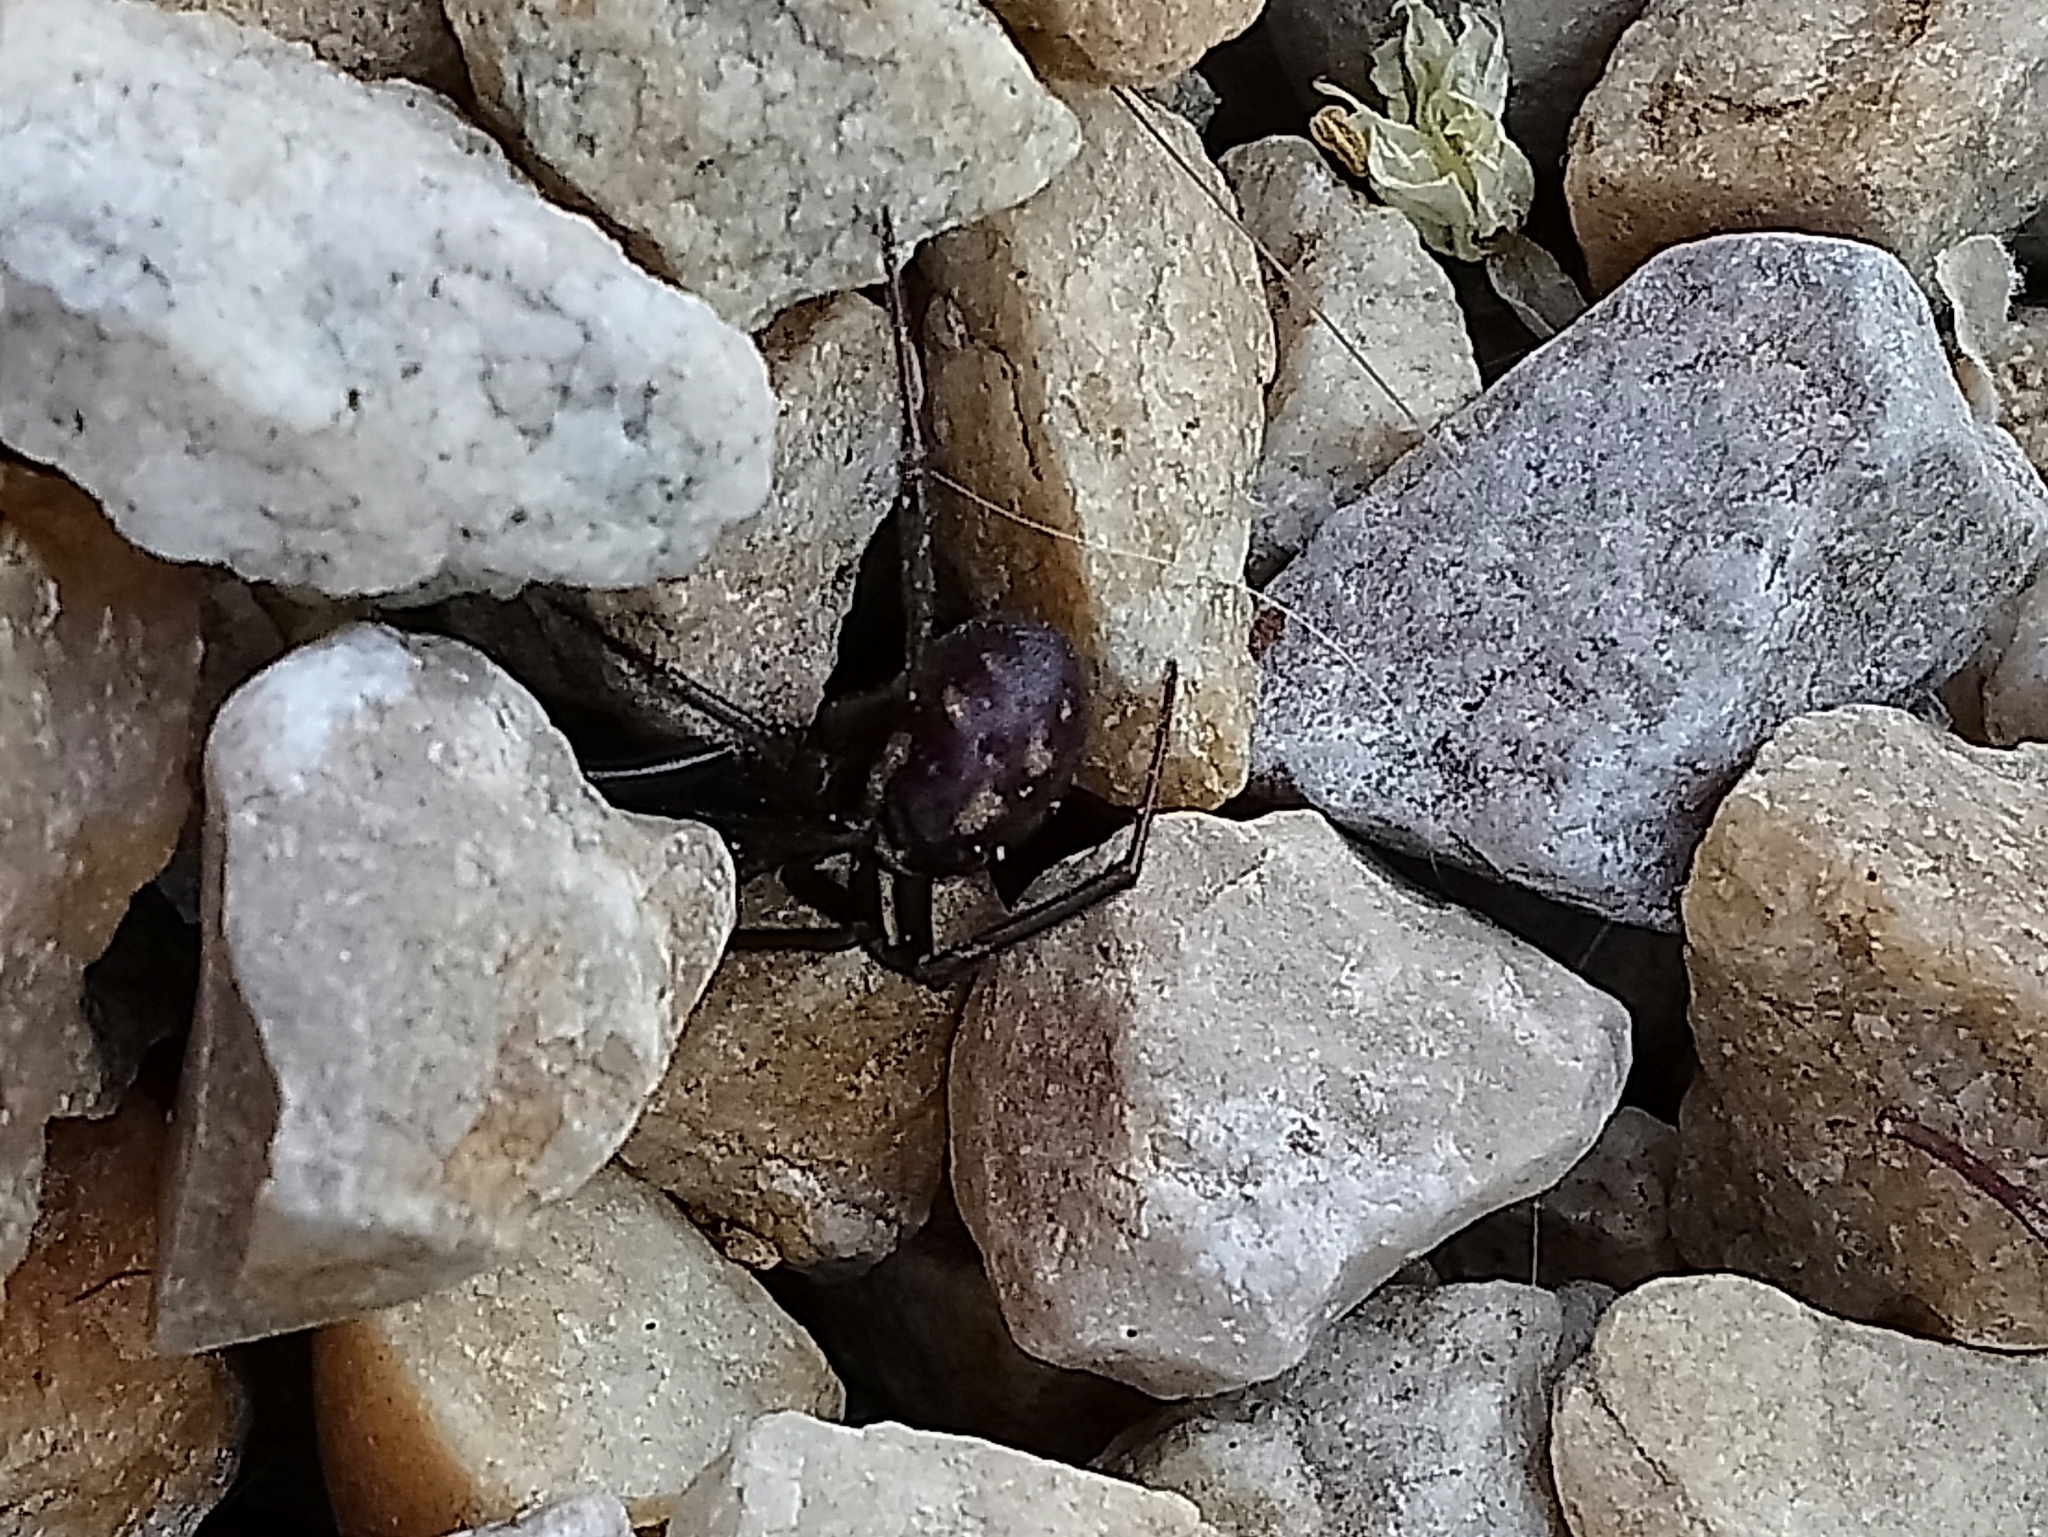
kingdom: Animalia
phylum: Arthropoda
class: Arachnida
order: Araneae
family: Theridiidae
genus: Steatoda
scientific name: Steatoda grossa
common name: False black widow
